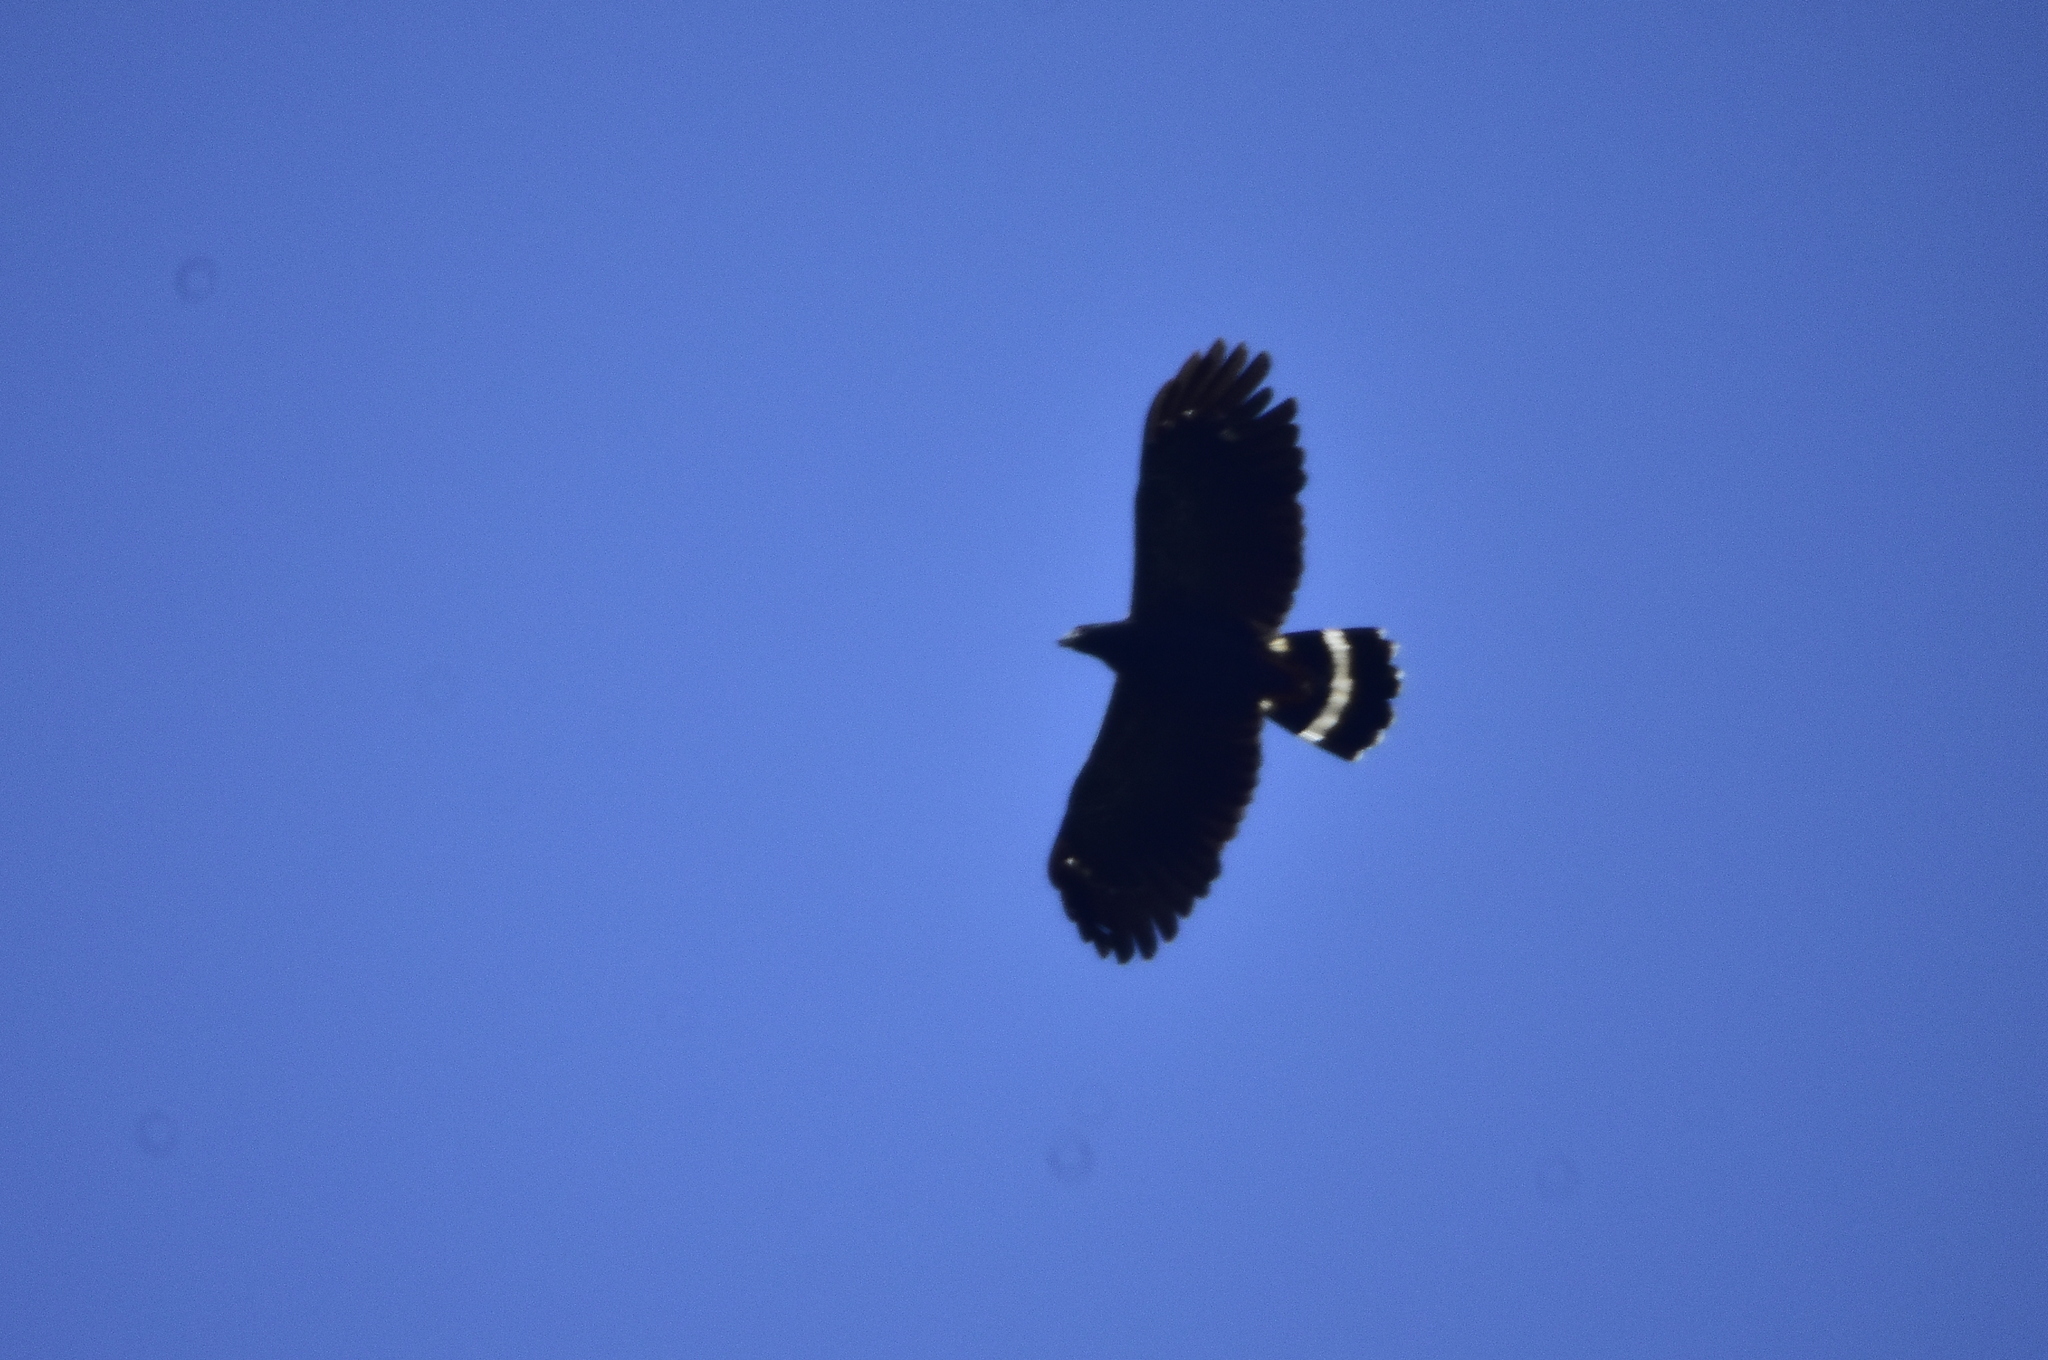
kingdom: Animalia
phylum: Chordata
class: Aves
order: Accipitriformes
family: Accipitridae
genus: Geranospiza
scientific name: Geranospiza caerulescens
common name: Crane hawk
